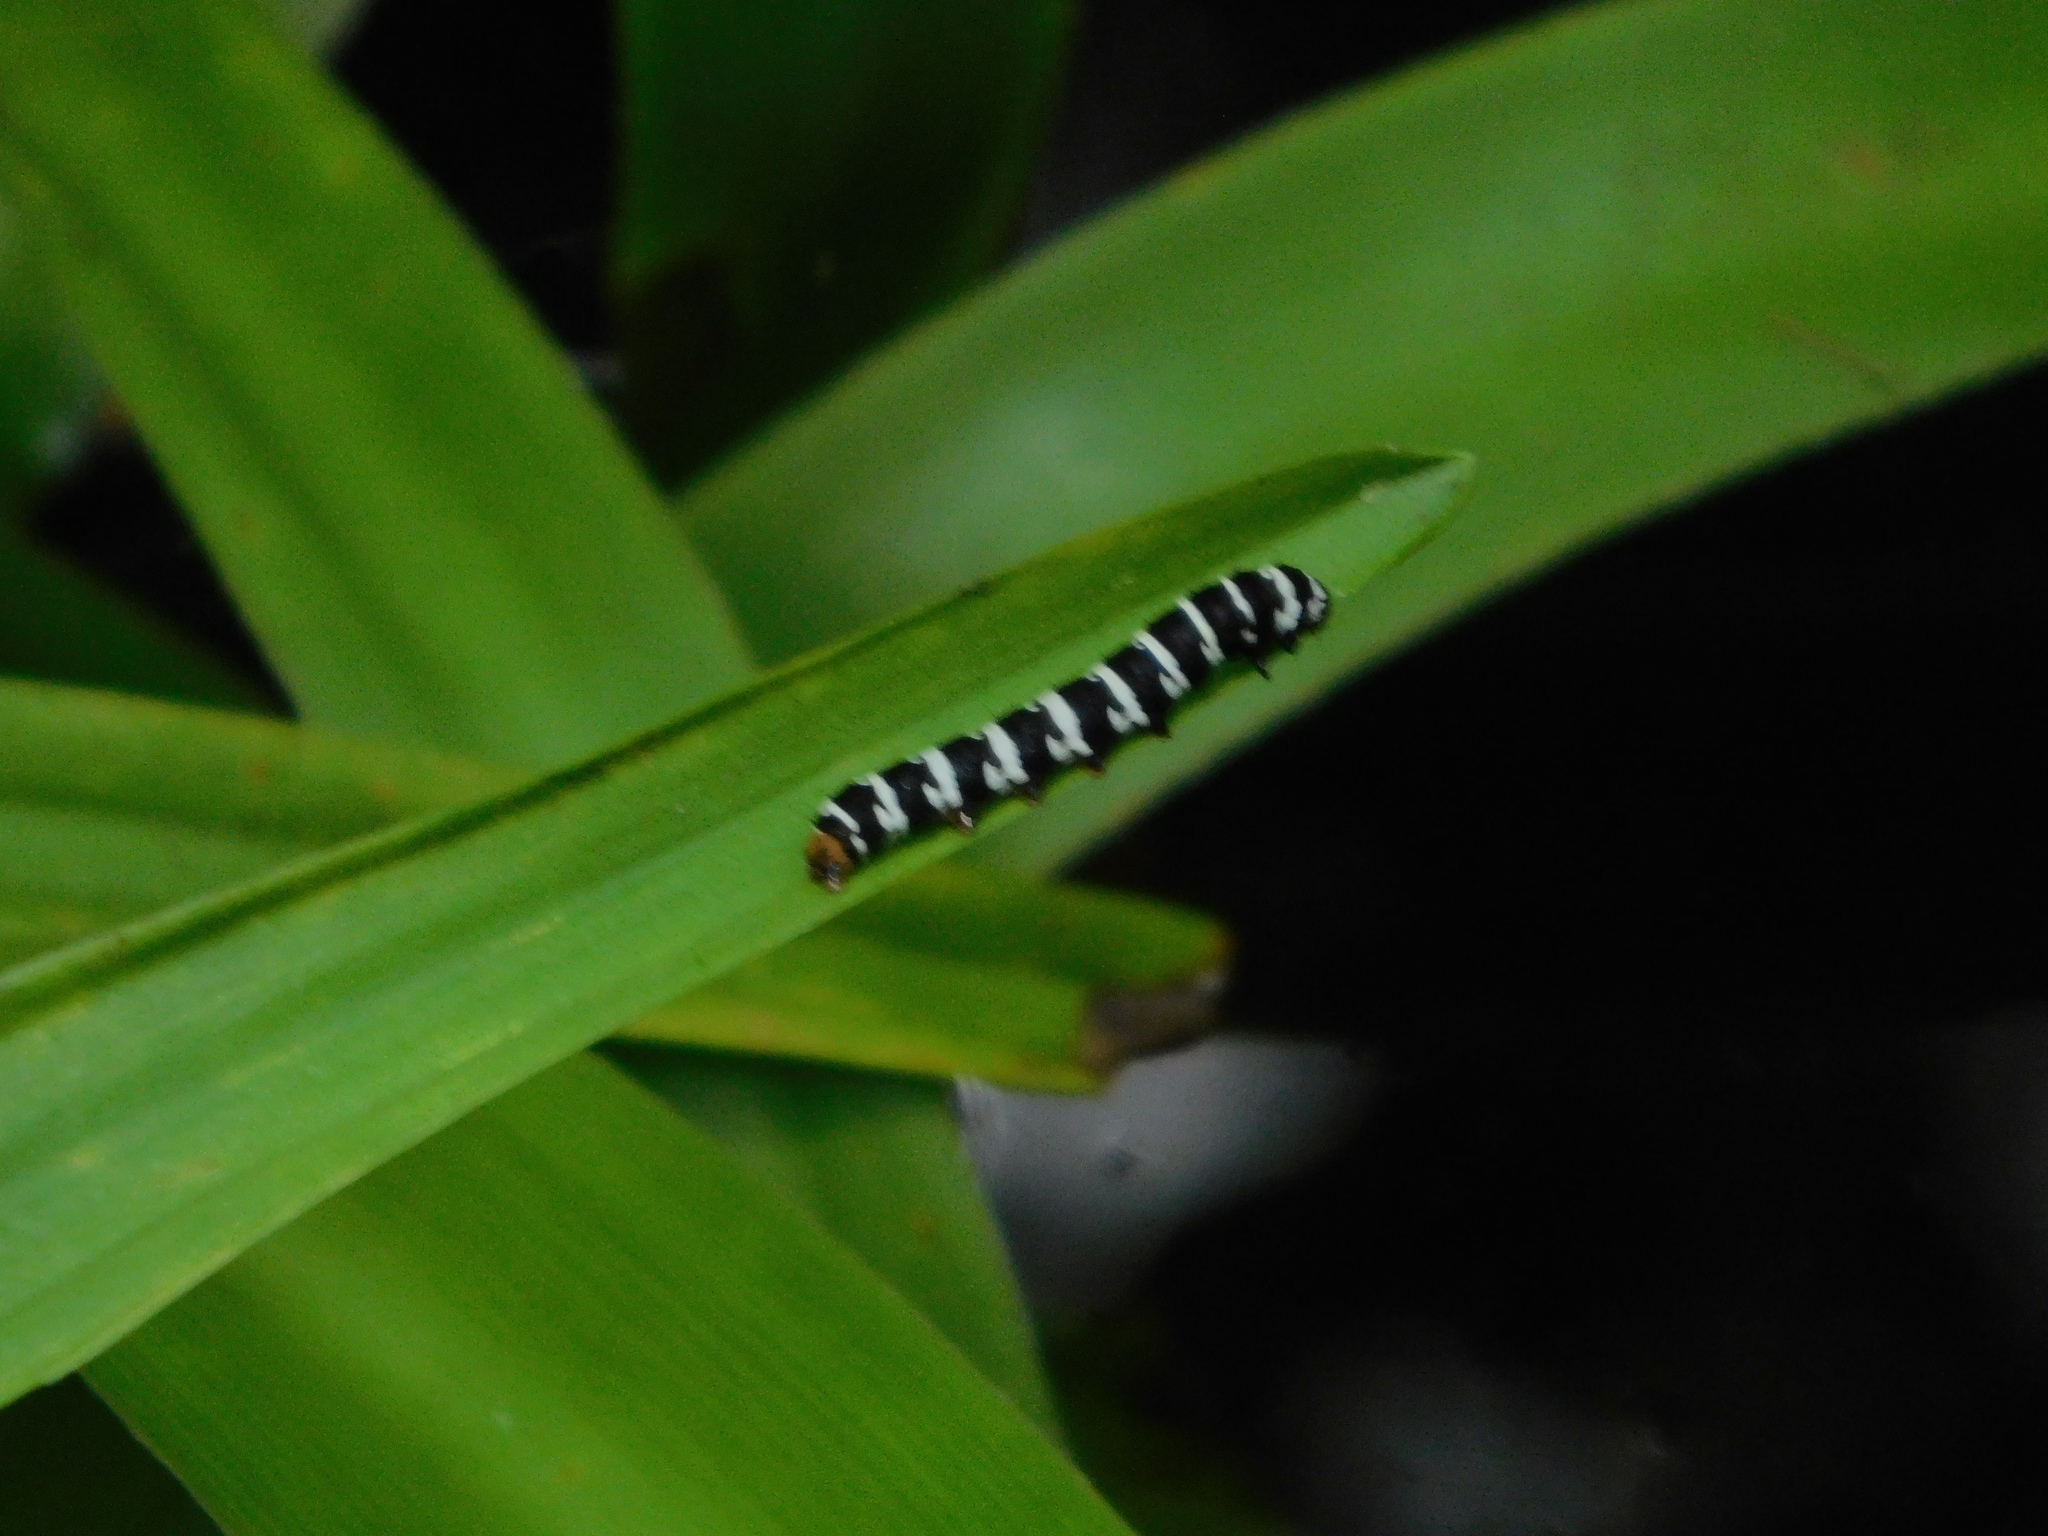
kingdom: Animalia
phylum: Arthropoda
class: Insecta
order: Lepidoptera
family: Noctuidae
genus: Xanthopastis
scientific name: Xanthopastis regnatrix
